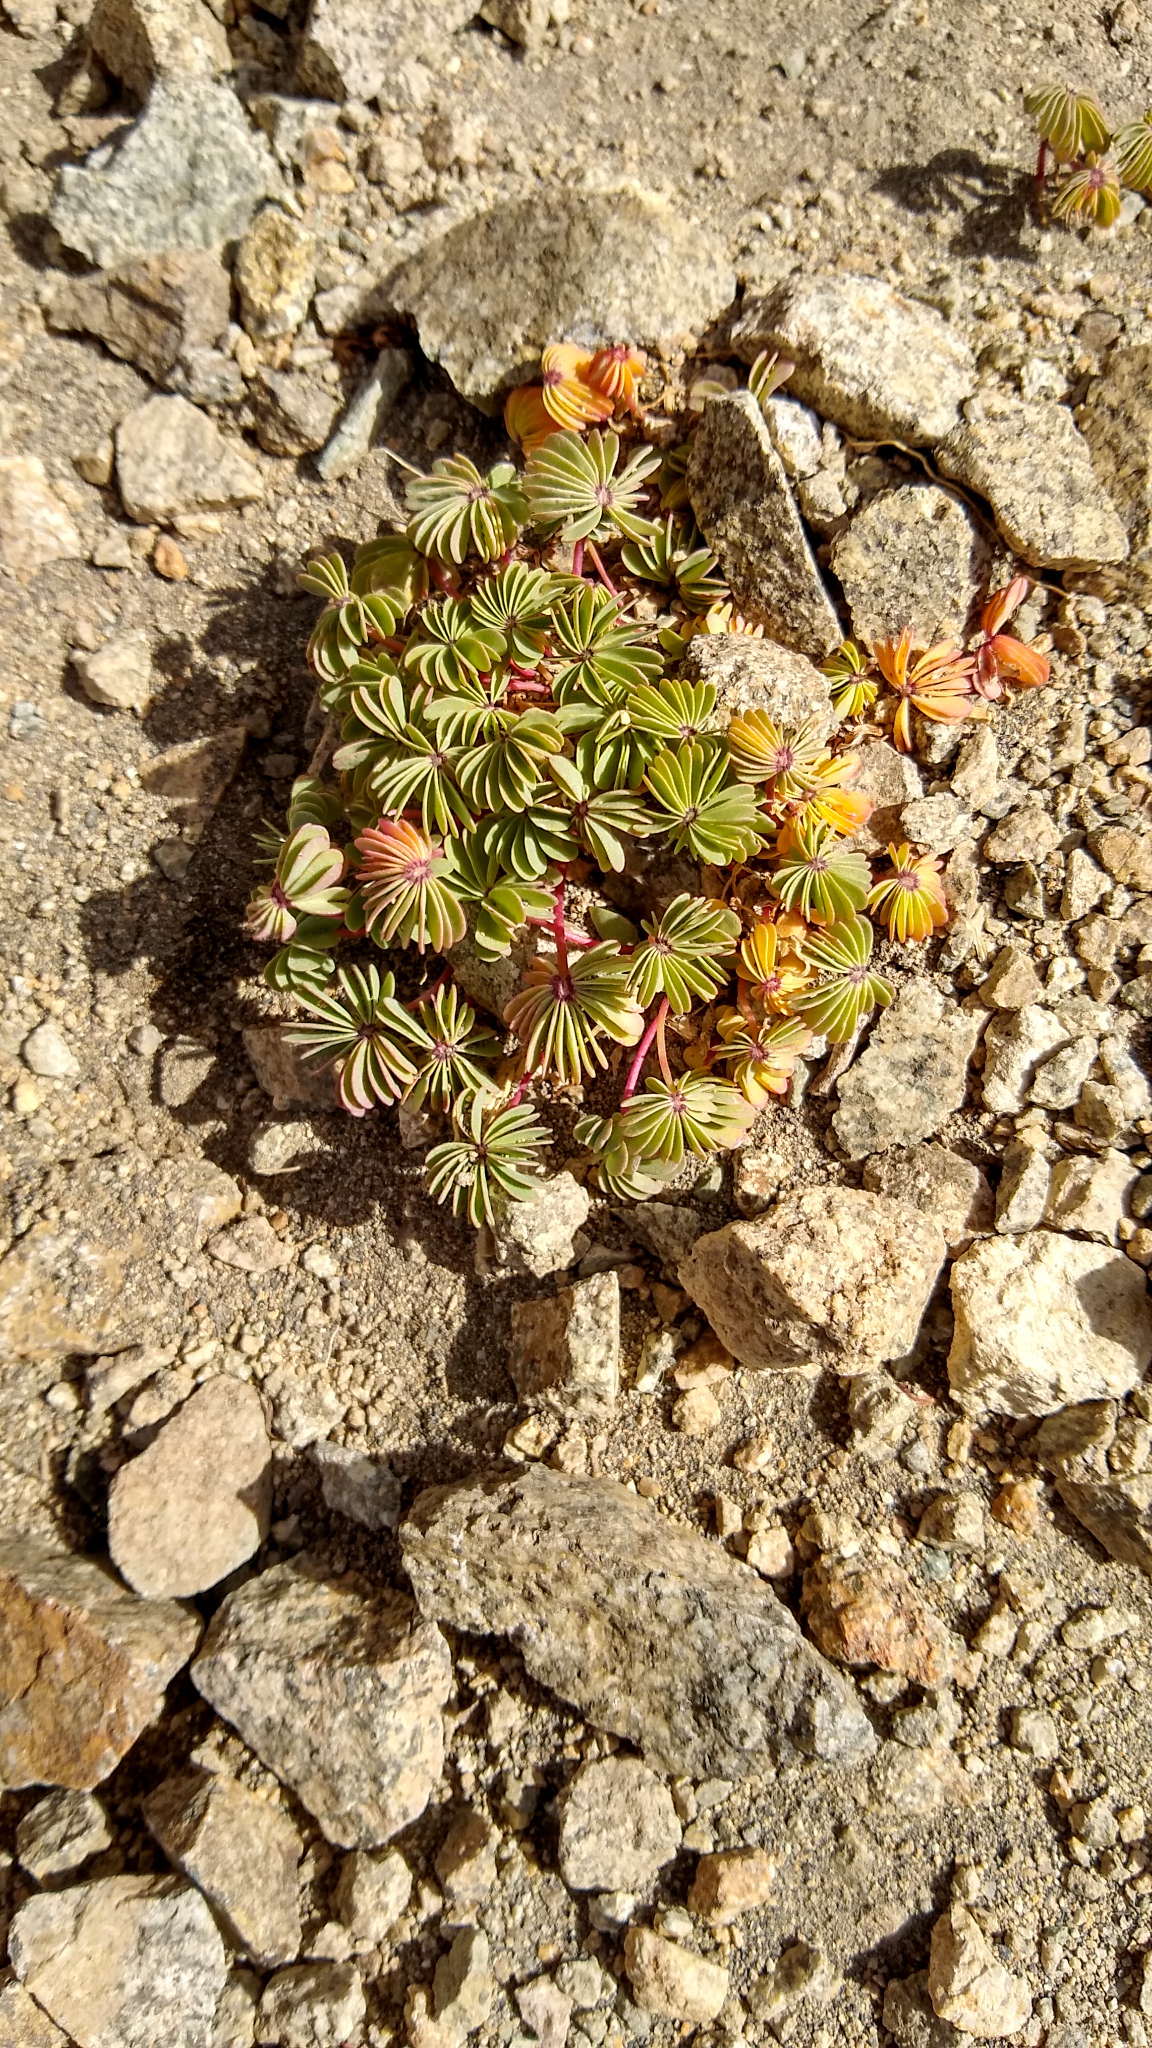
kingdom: Plantae
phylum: Tracheophyta
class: Magnoliopsida
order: Oxalidales
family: Oxalidaceae
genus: Oxalis
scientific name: Oxalis adenophylla
